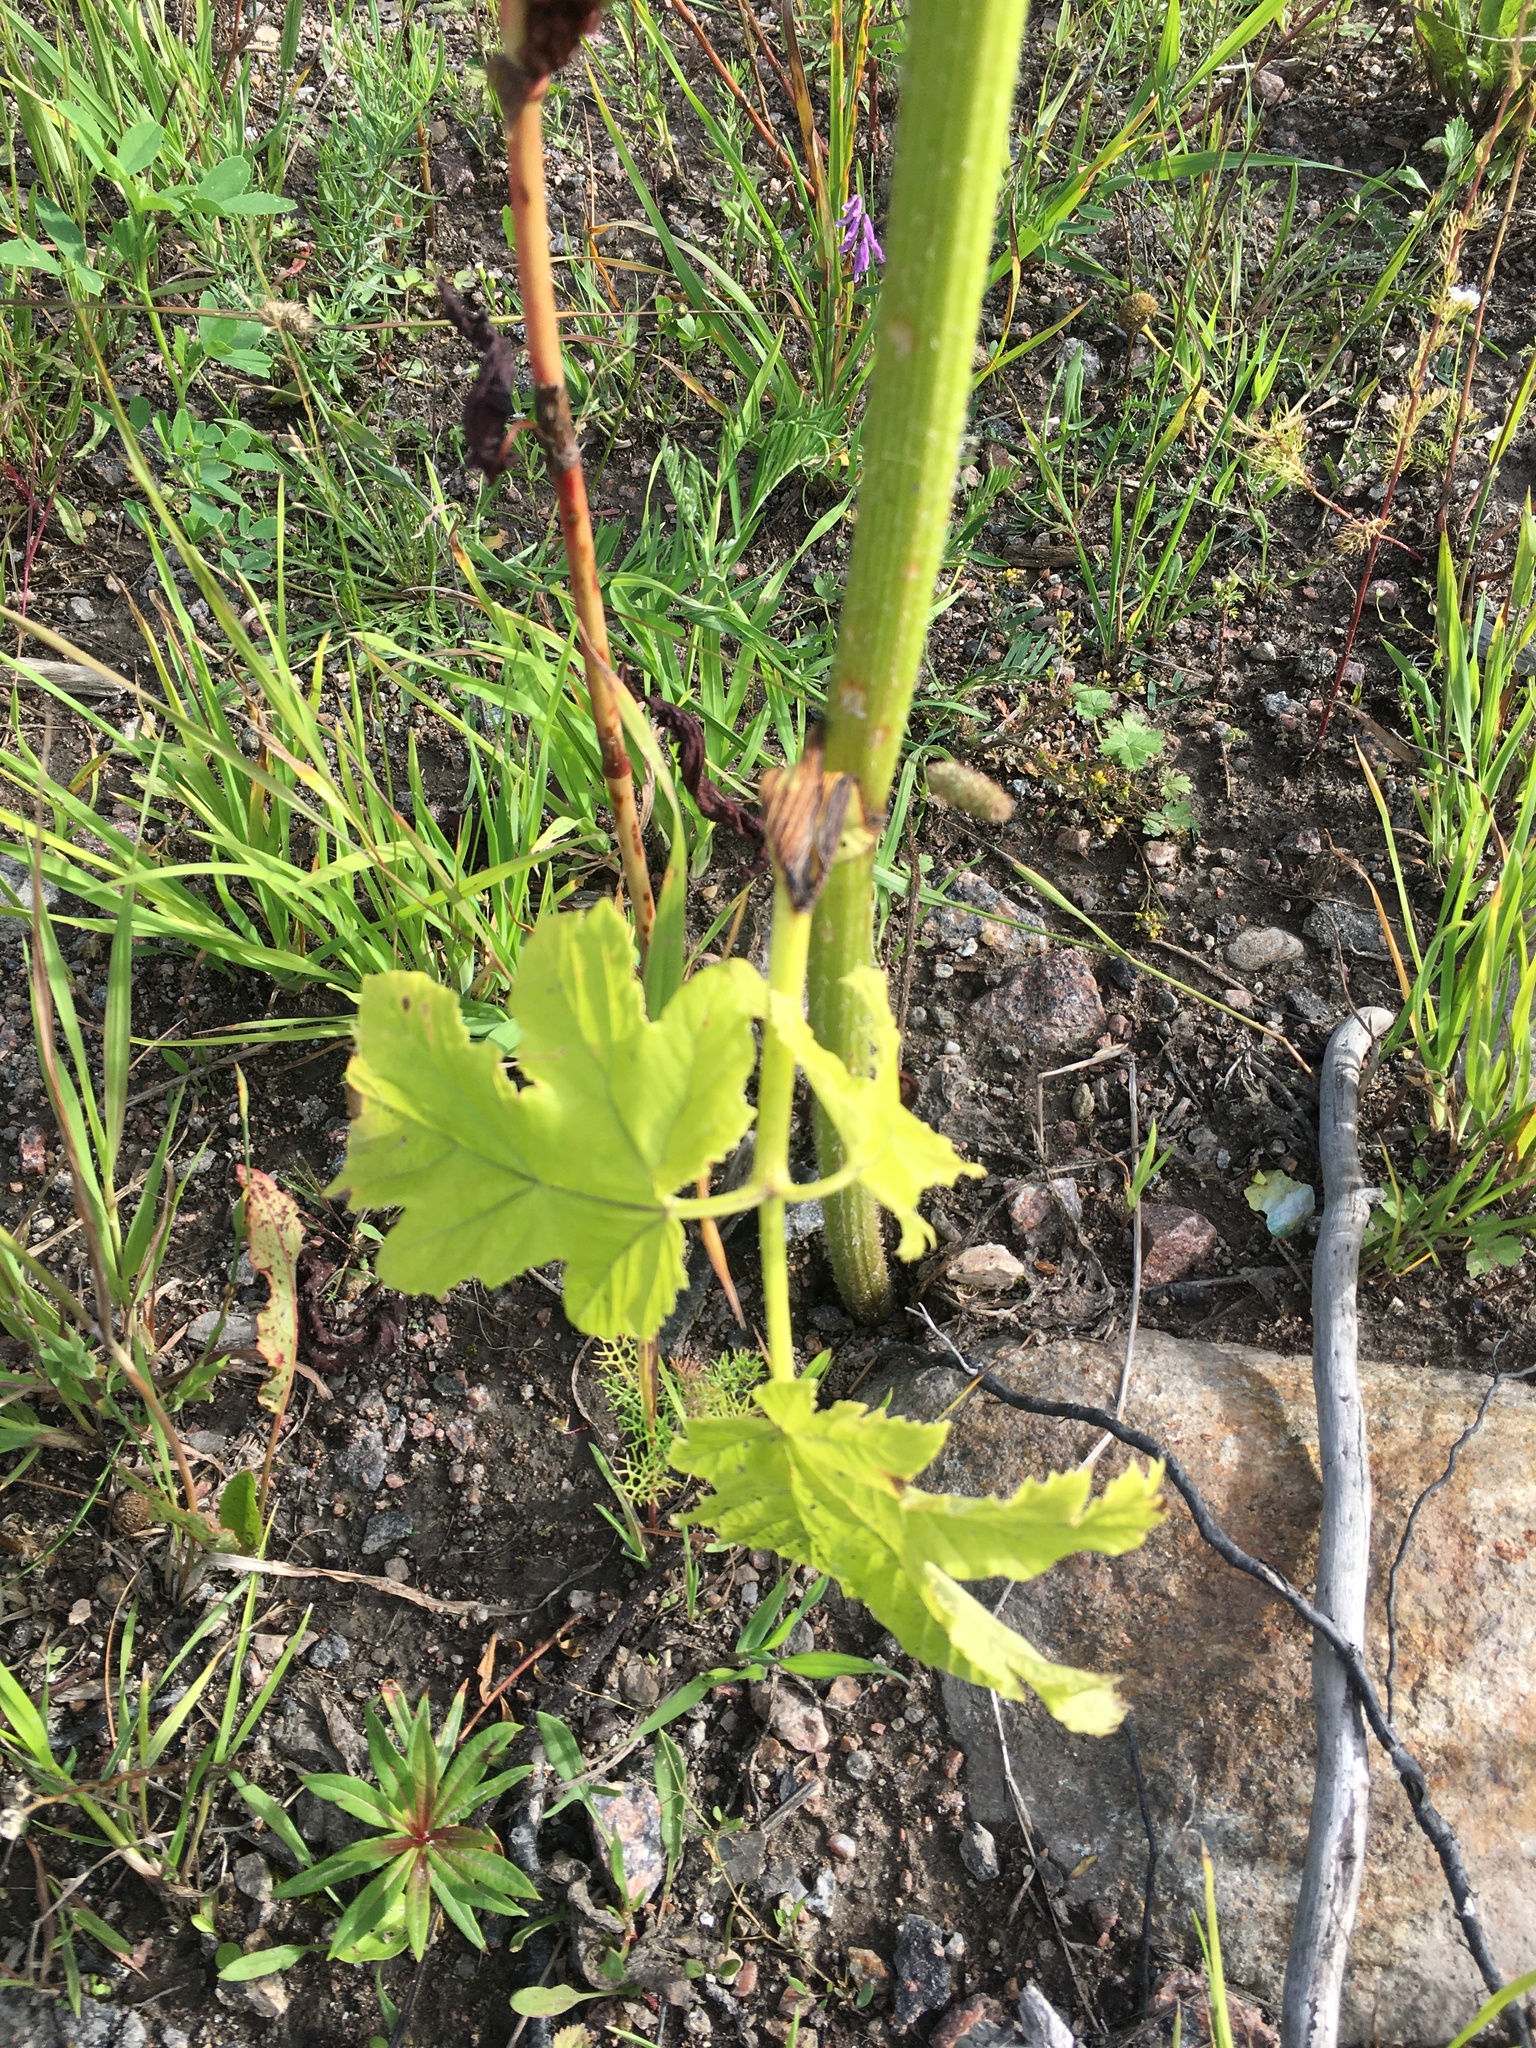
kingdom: Plantae
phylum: Tracheophyta
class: Magnoliopsida
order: Apiales
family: Apiaceae
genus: Heracleum
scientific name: Heracleum sphondylium
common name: Hogweed
